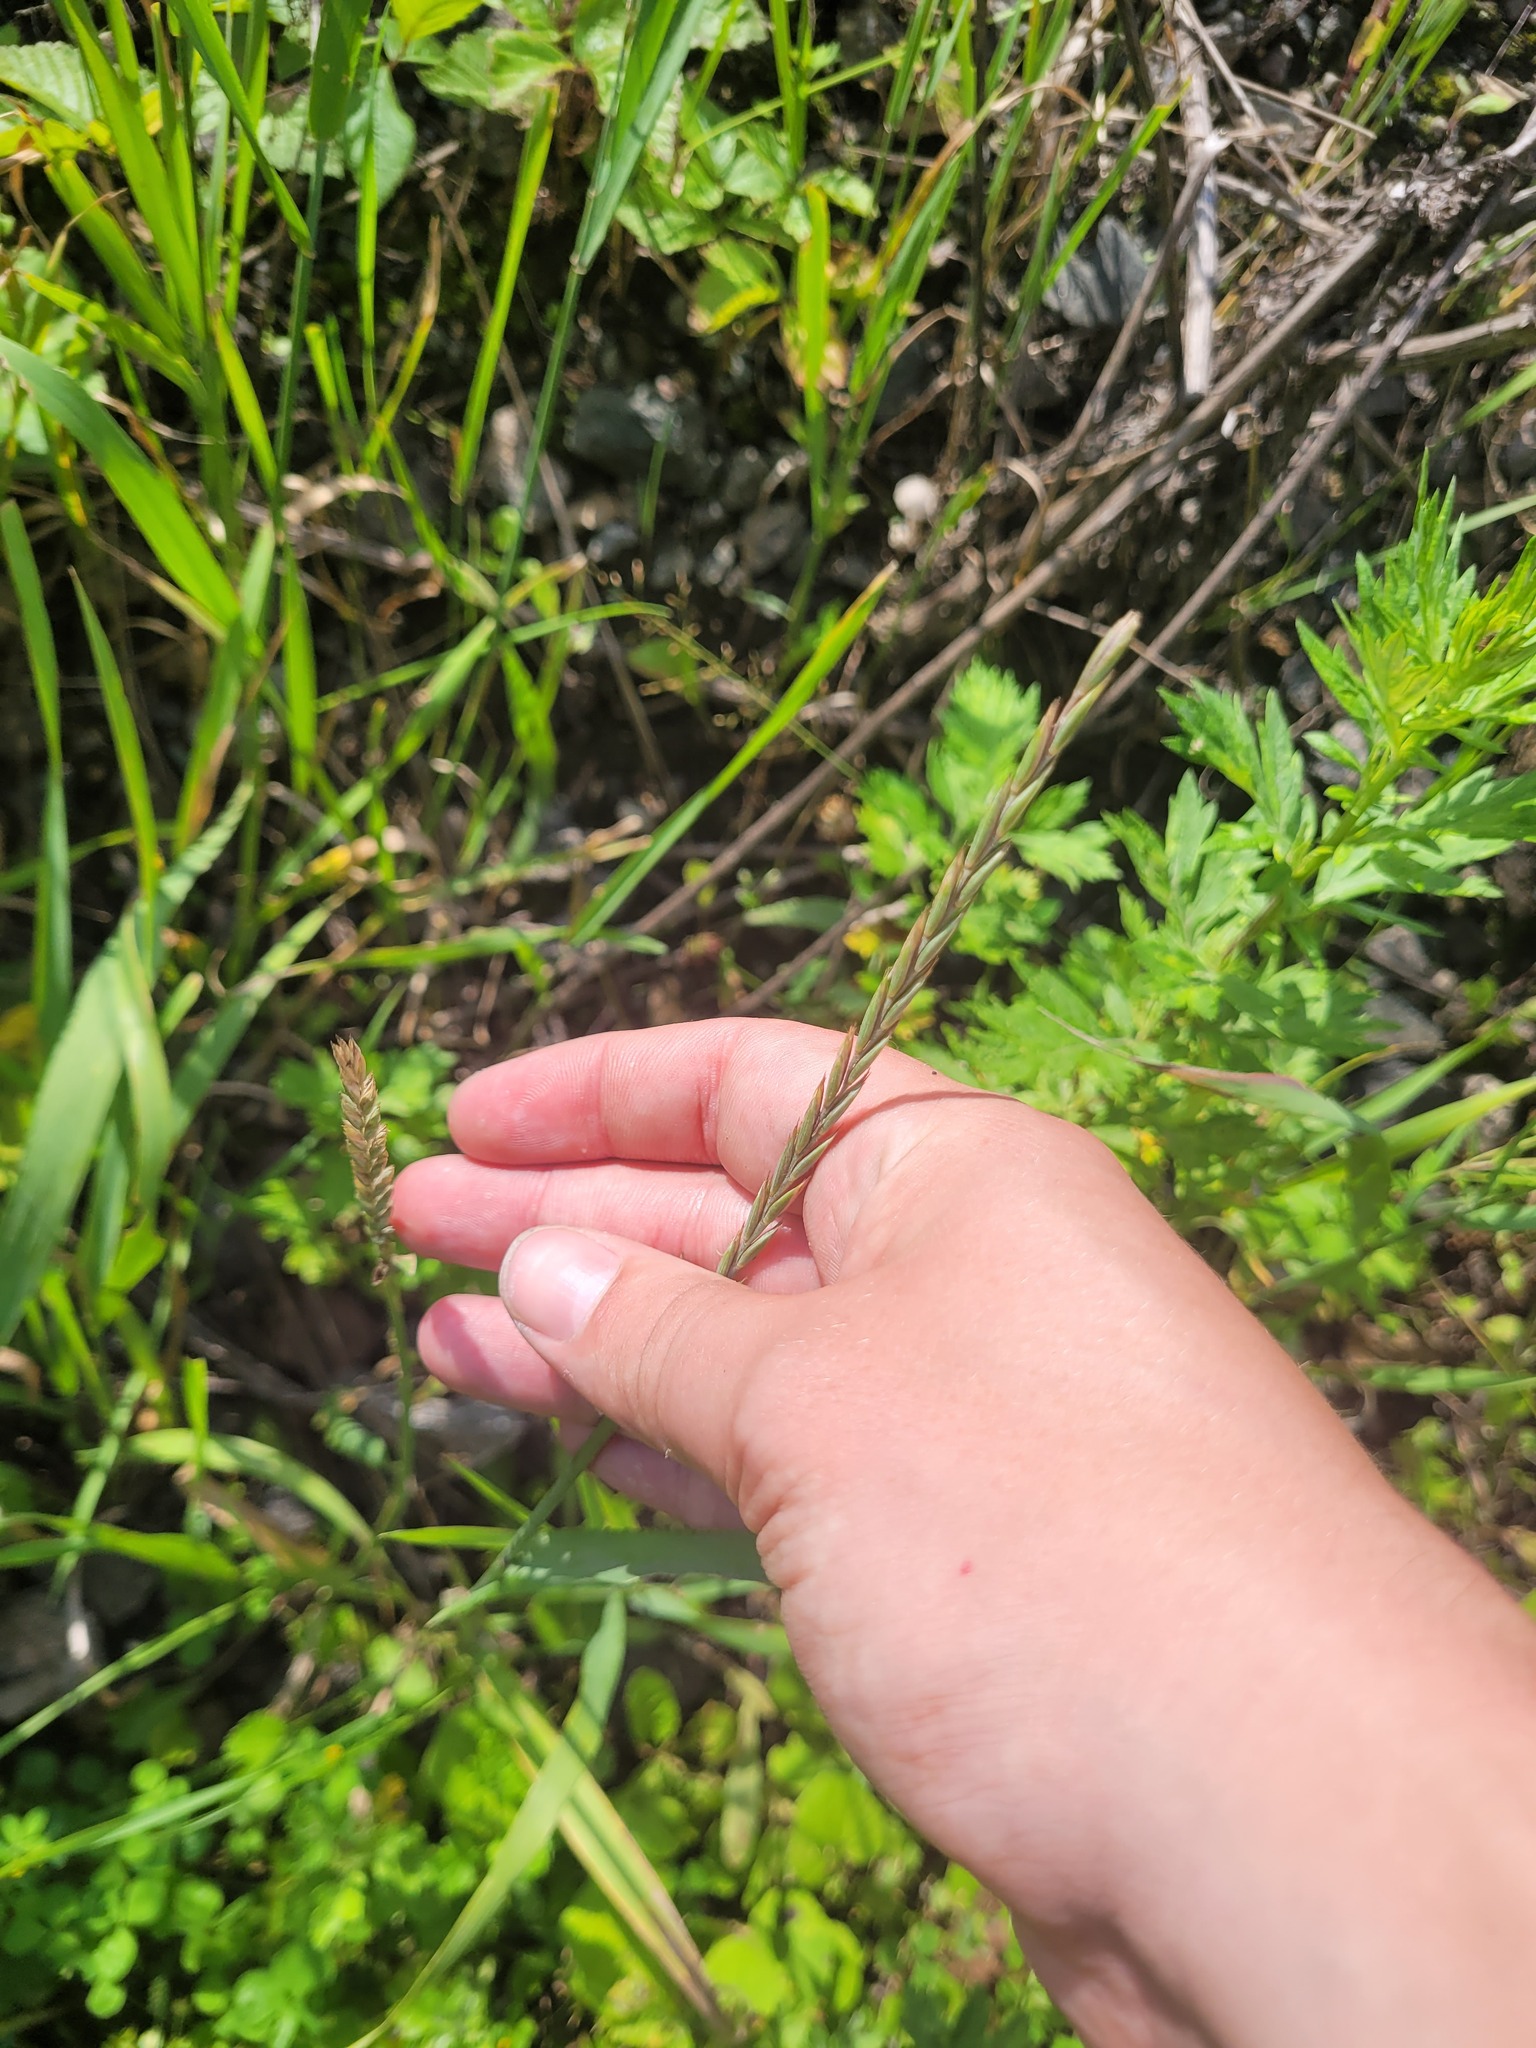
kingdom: Plantae
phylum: Tracheophyta
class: Liliopsida
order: Poales
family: Poaceae
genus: Elymus
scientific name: Elymus repens
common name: Quackgrass
